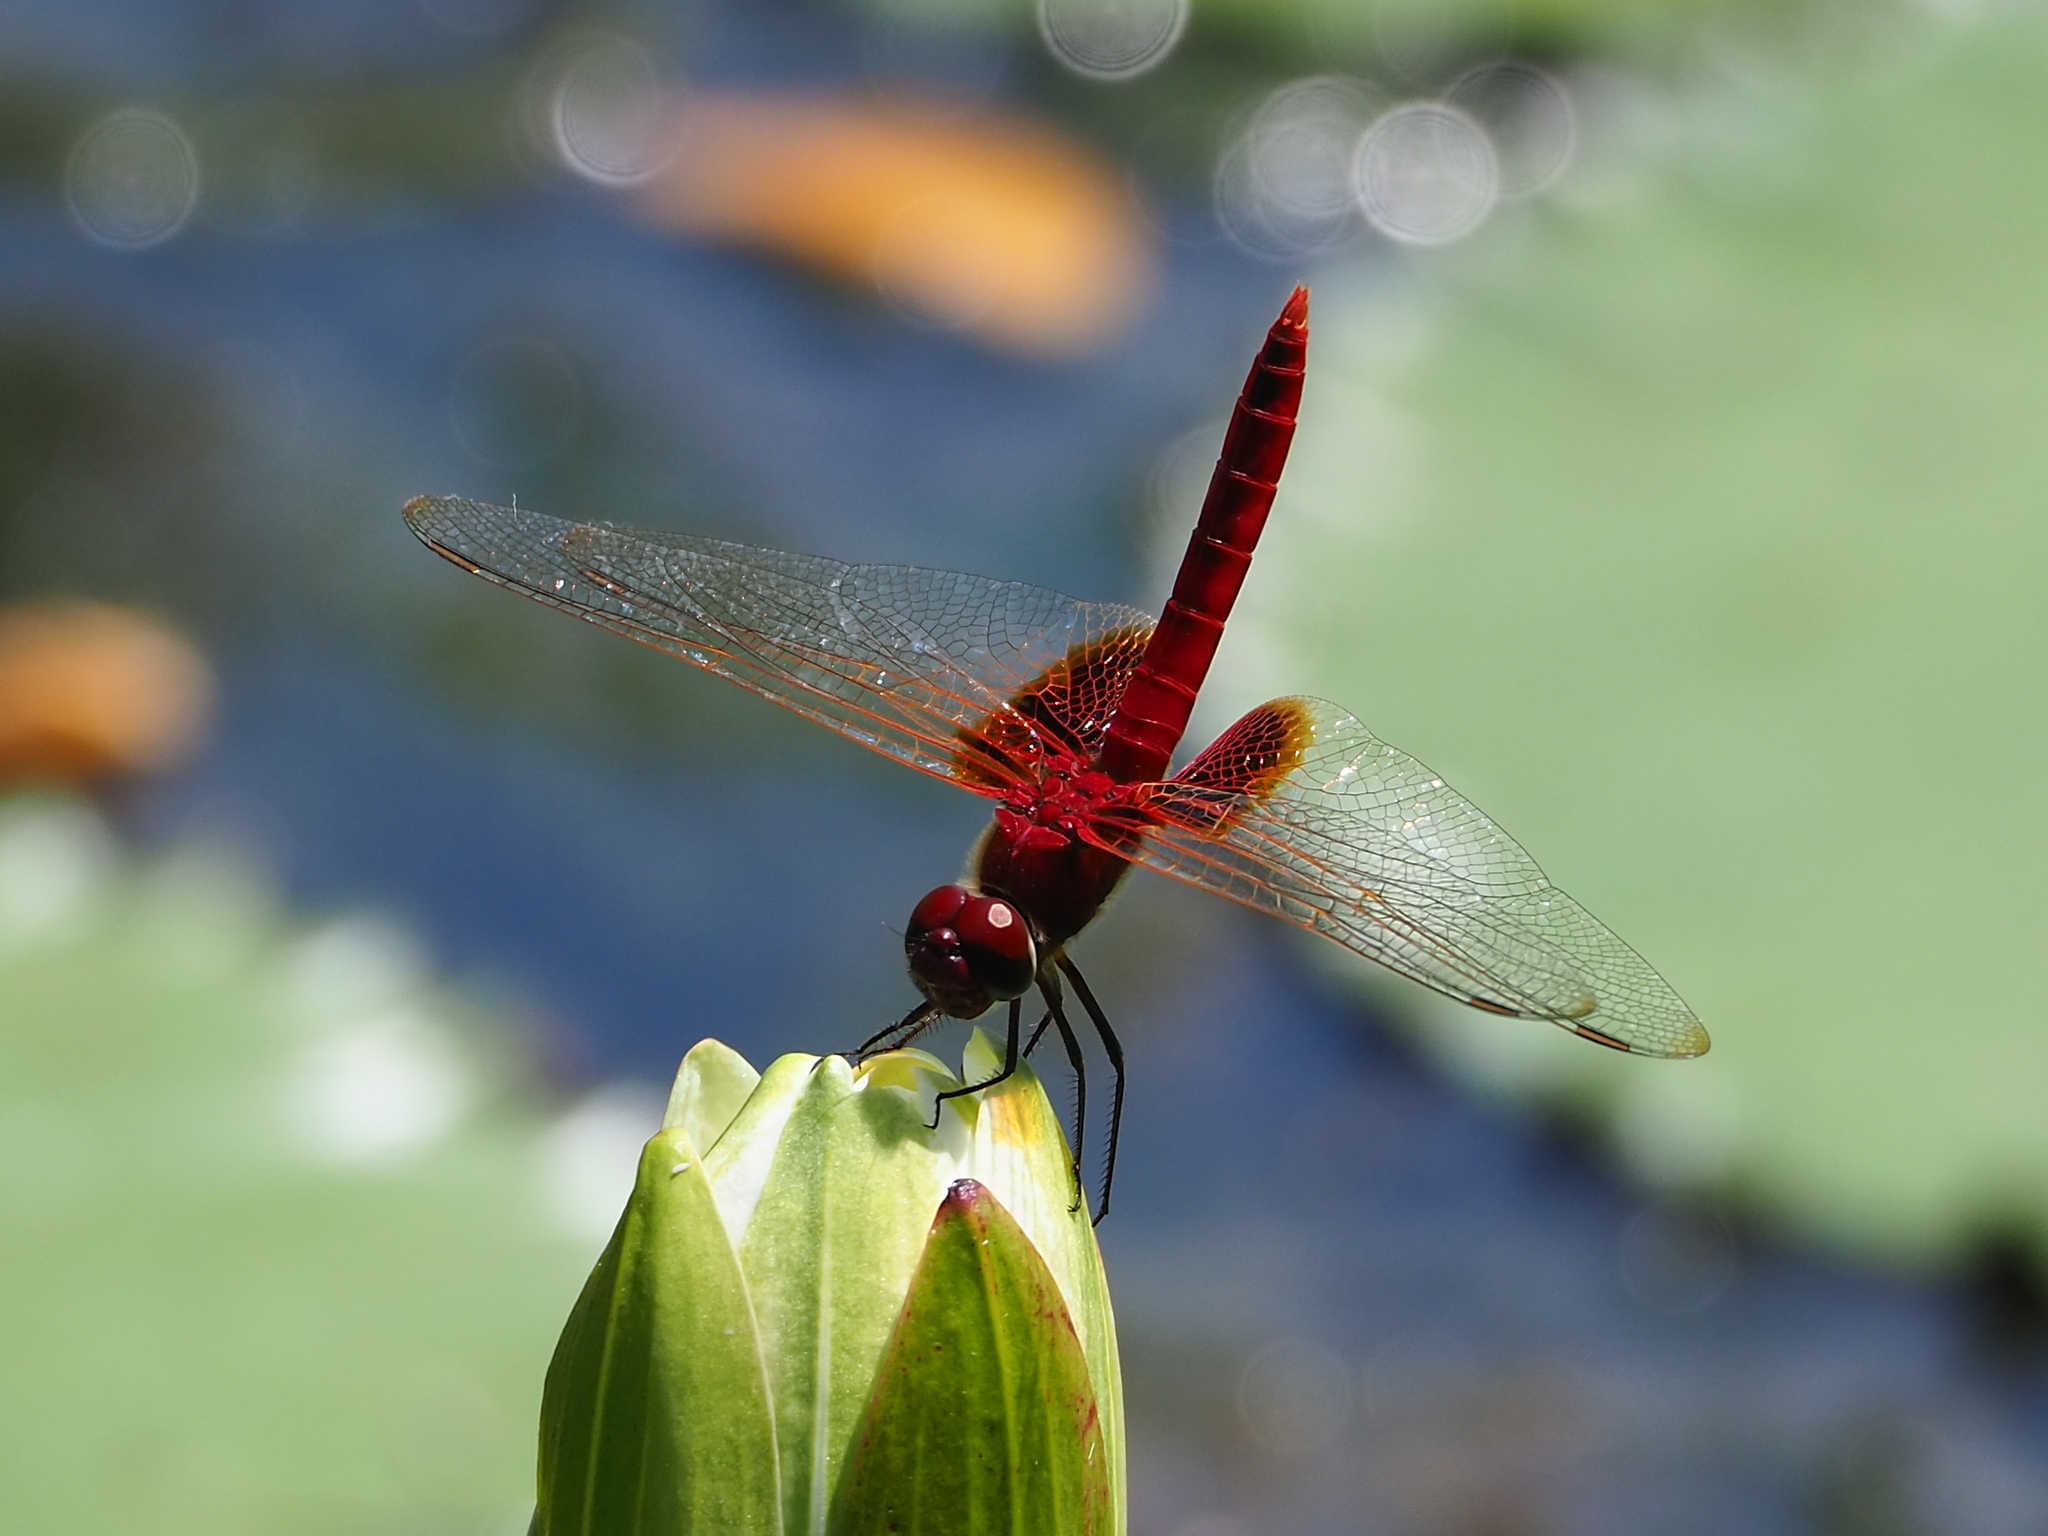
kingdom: Animalia
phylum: Arthropoda
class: Insecta
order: Odonata
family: Libellulidae
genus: Urothemis
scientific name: Urothemis signata
